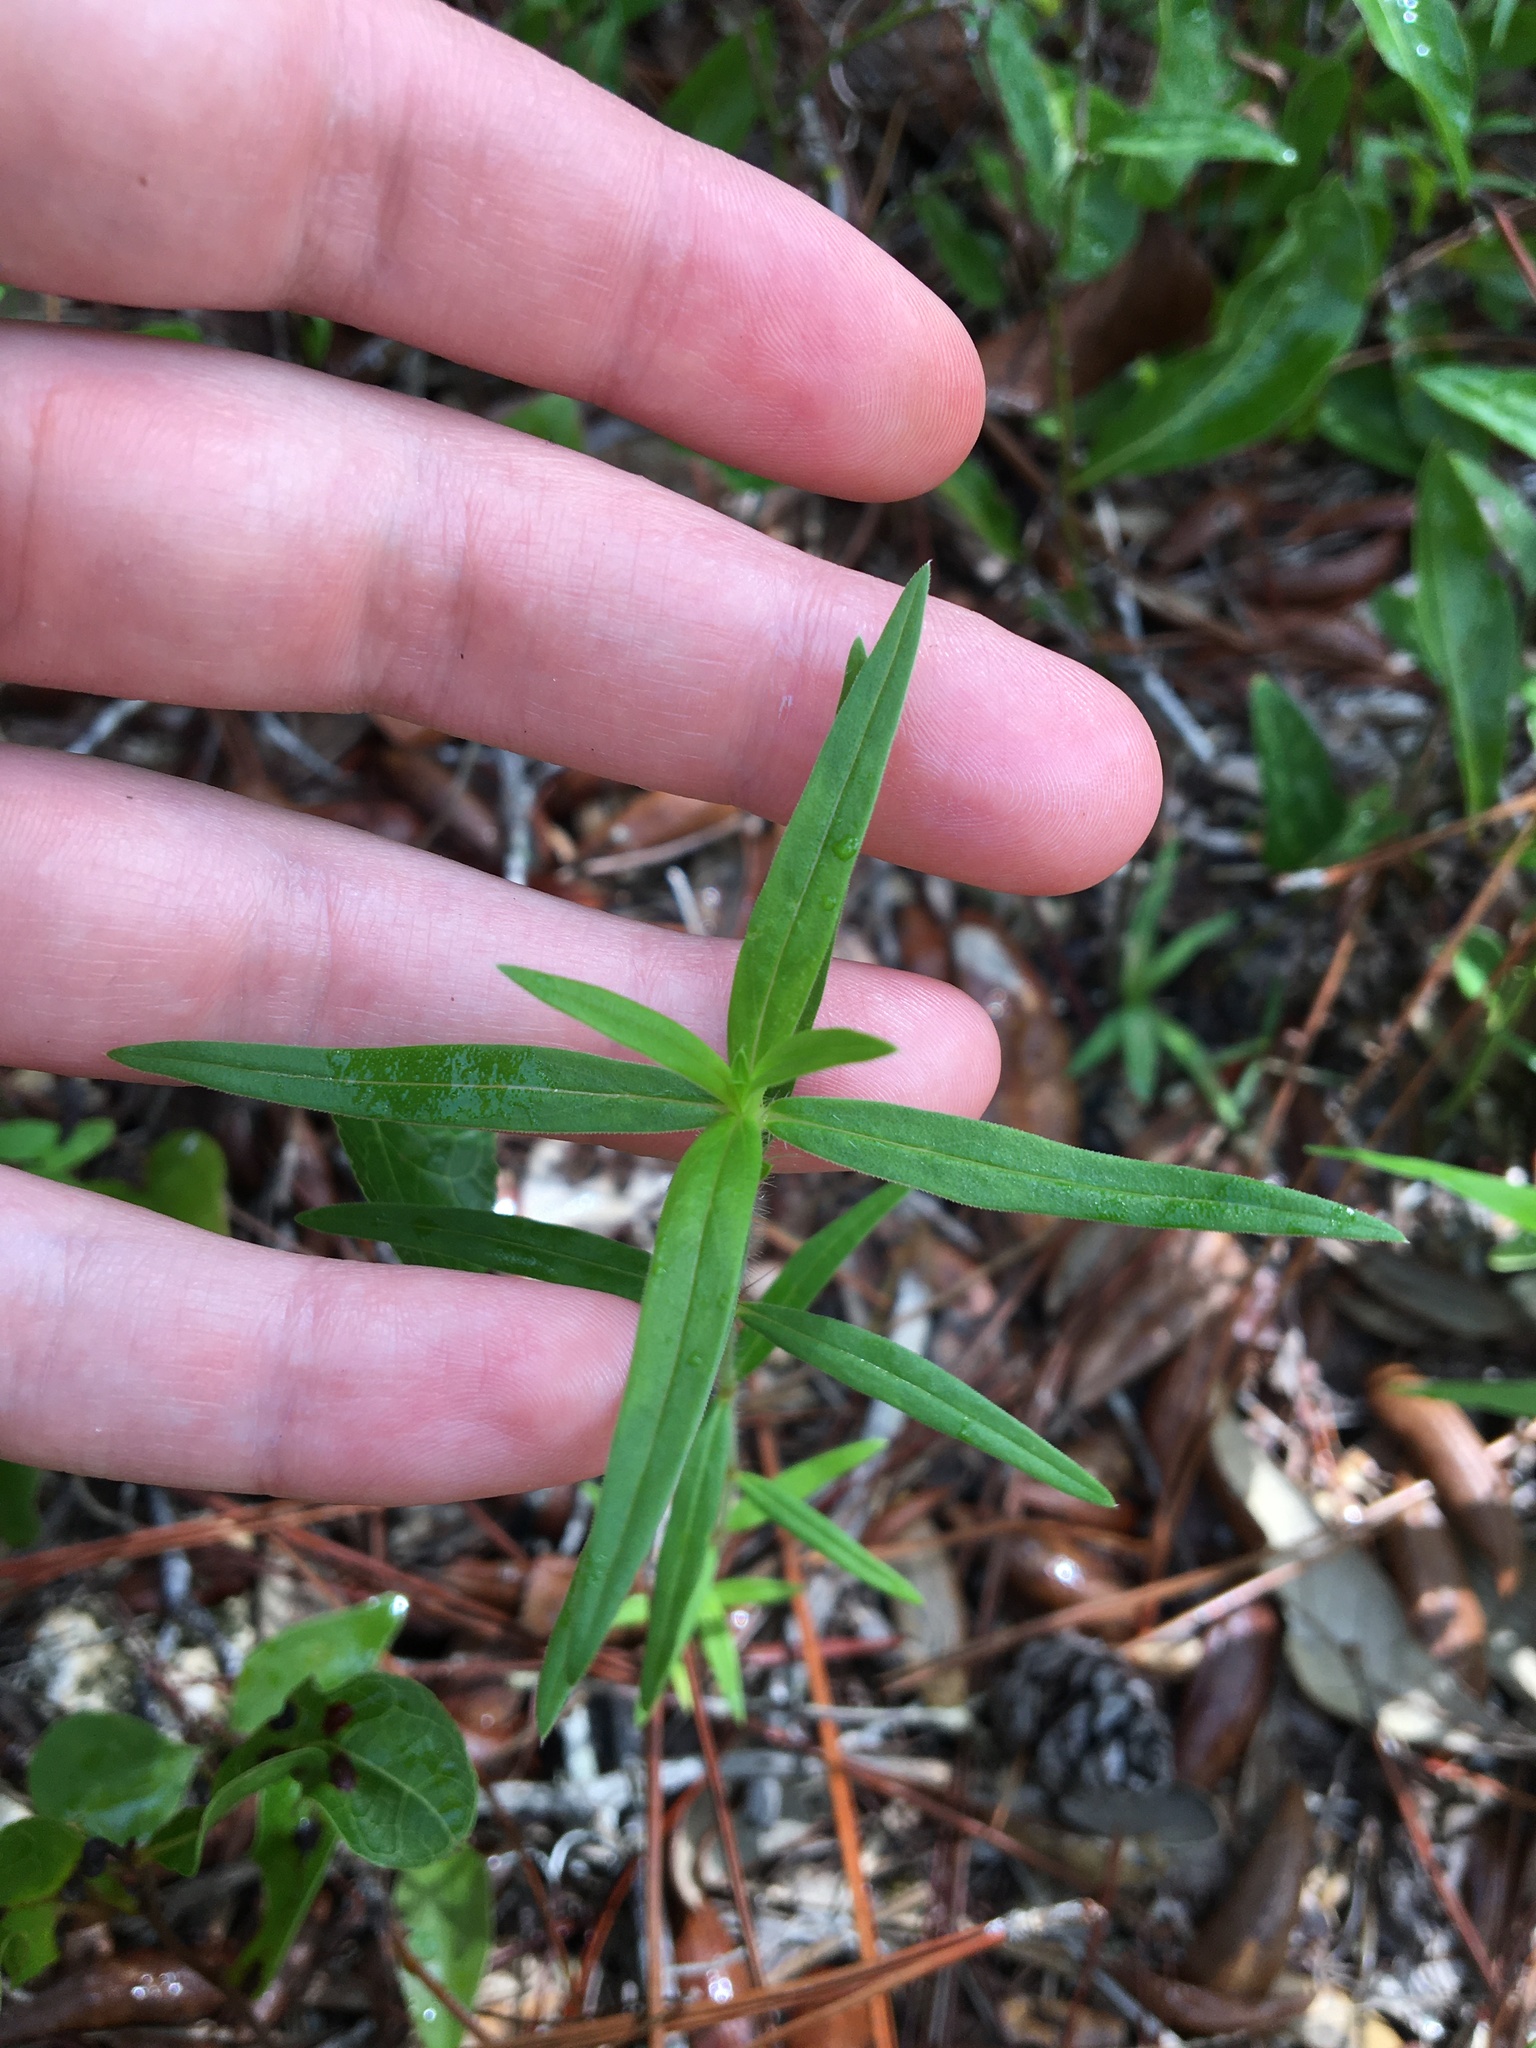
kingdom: Plantae
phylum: Tracheophyta
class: Magnoliopsida
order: Gentianales
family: Rubiaceae
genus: Hexasepalum
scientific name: Hexasepalum teres
